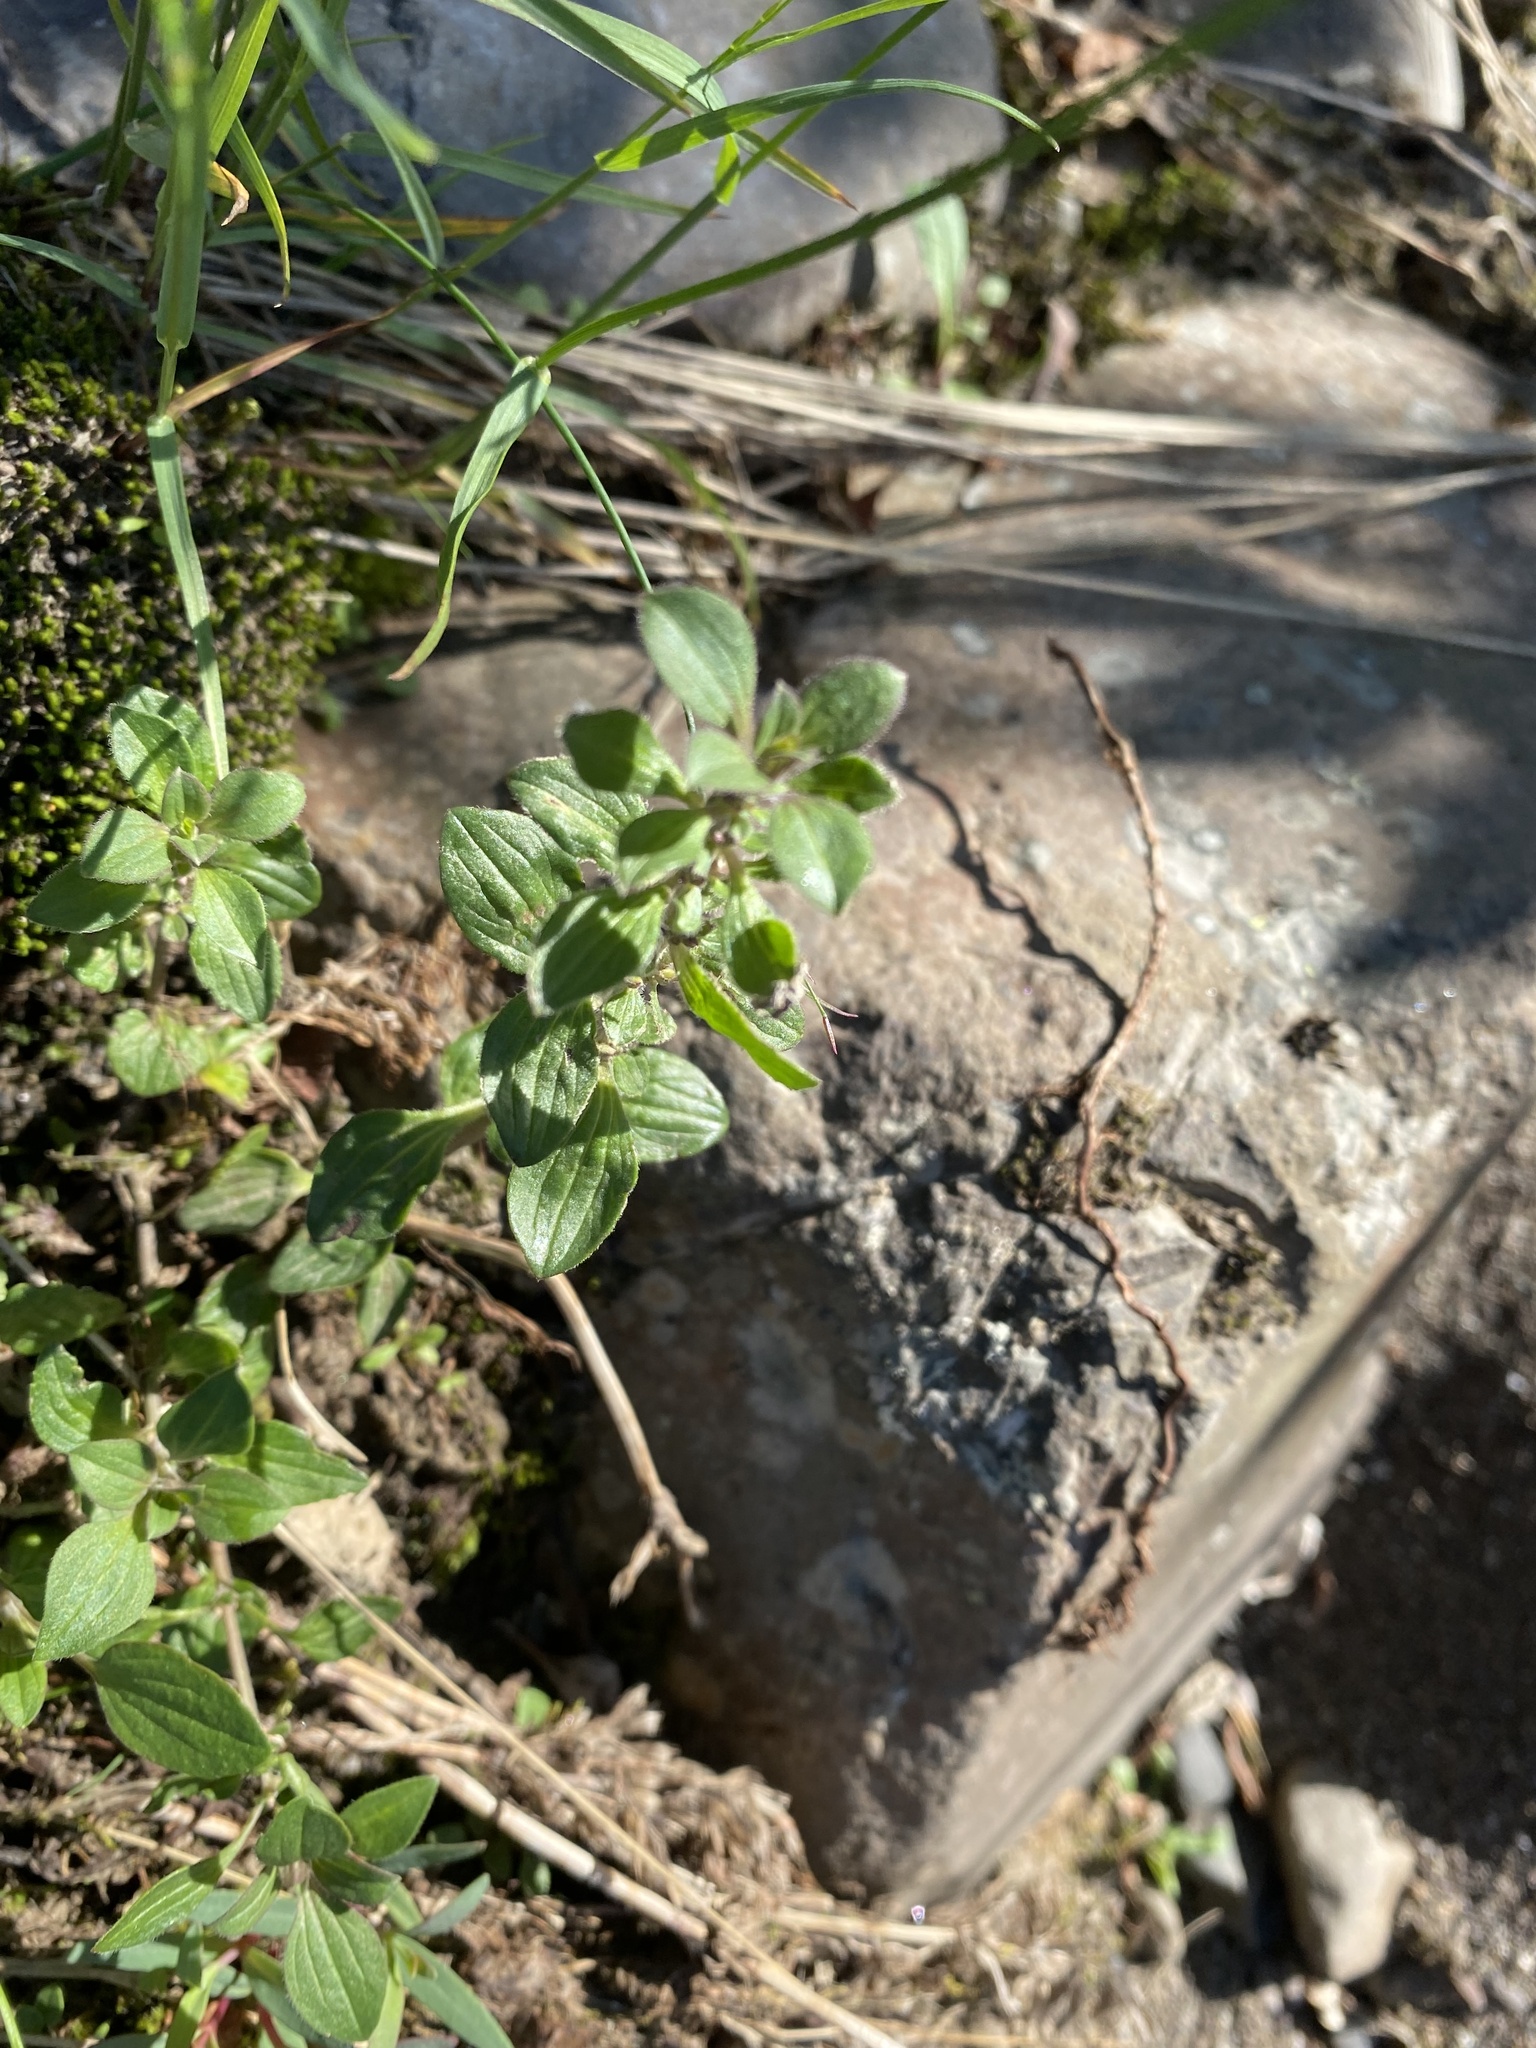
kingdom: Plantae
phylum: Tracheophyta
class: Magnoliopsida
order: Lamiales
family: Lamiaceae
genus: Dracocephalum
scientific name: Dracocephalum nutans
